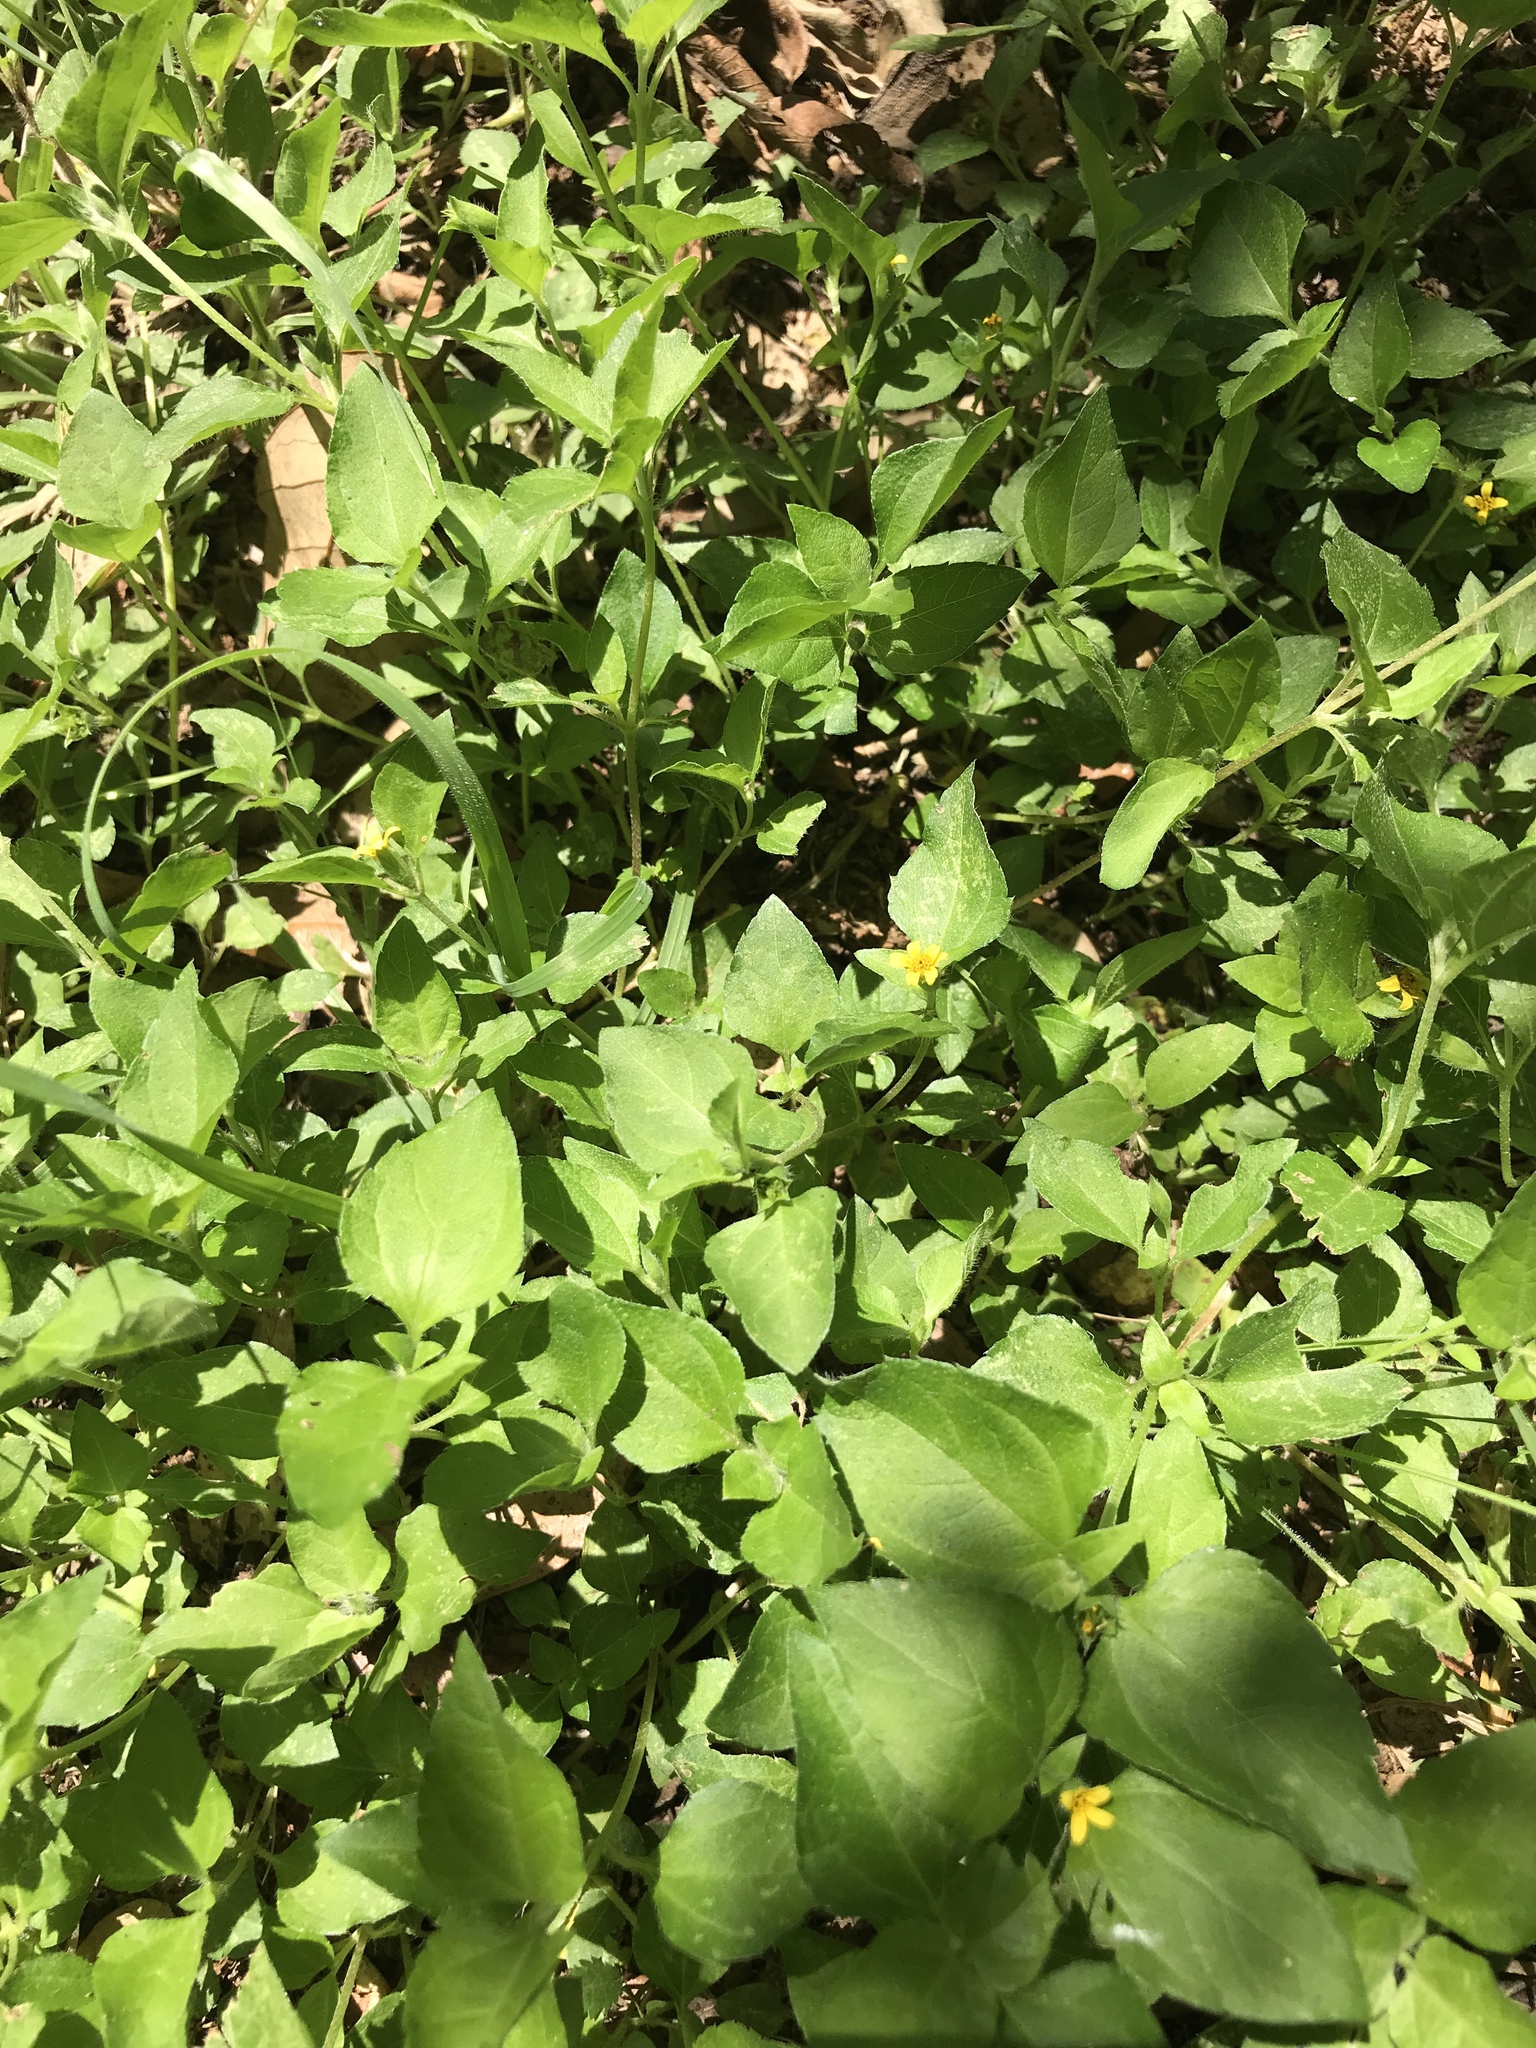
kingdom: Plantae
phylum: Tracheophyta
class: Magnoliopsida
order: Asterales
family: Asteraceae
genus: Calyptocarpus
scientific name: Calyptocarpus vialis
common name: Straggler daisy
